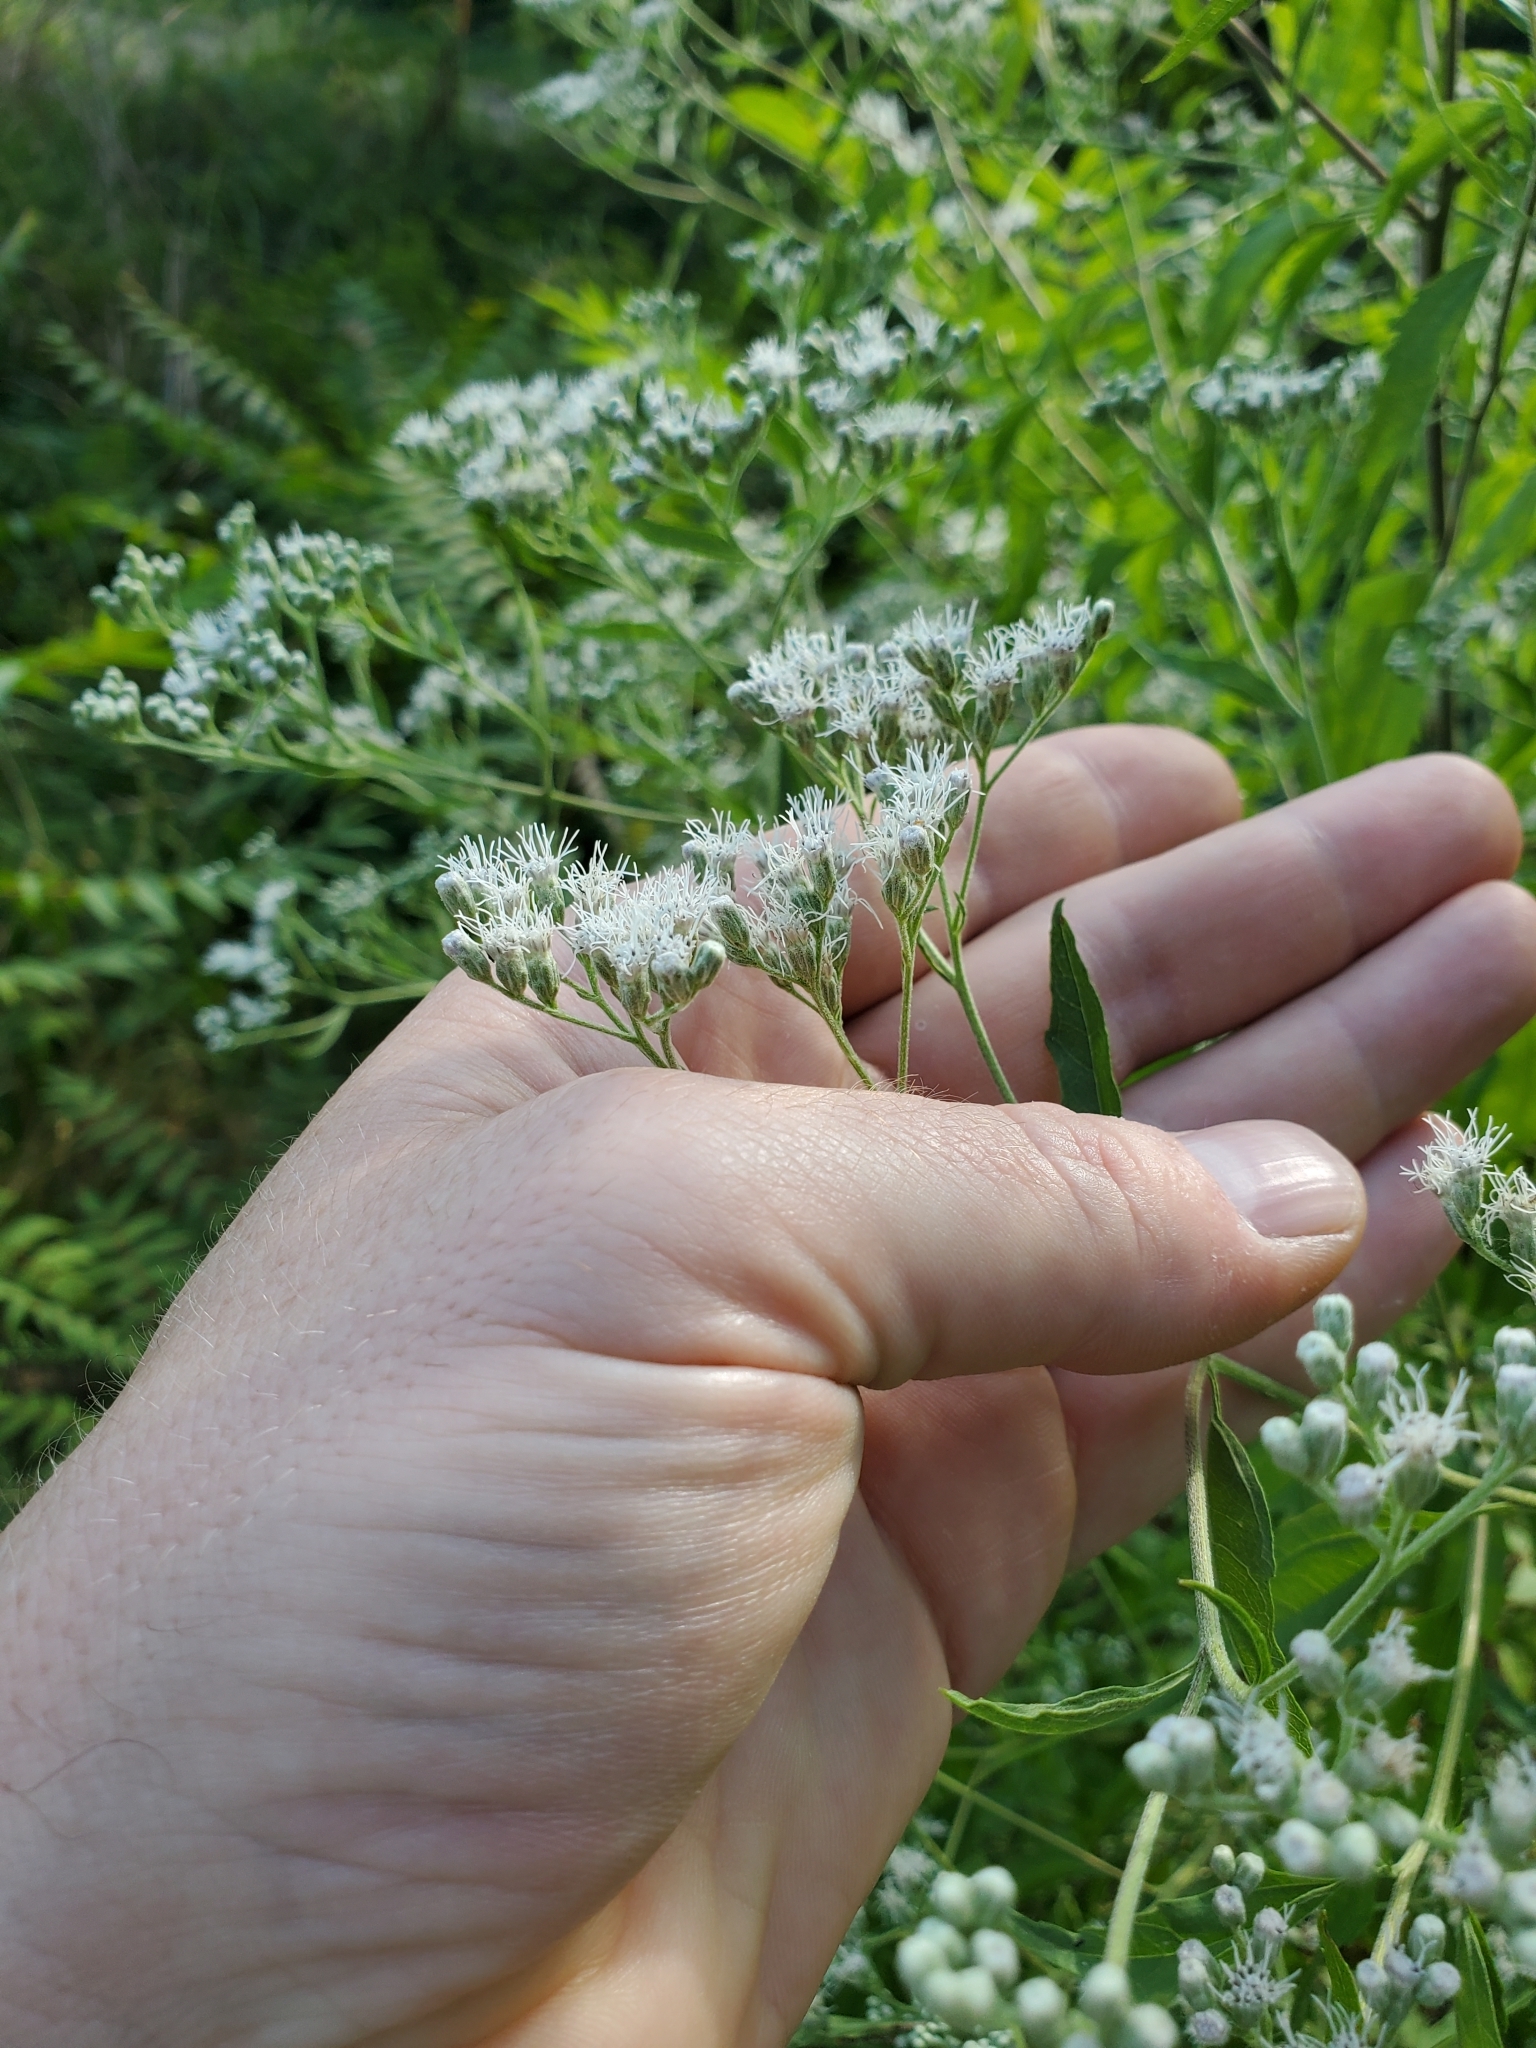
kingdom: Plantae
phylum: Tracheophyta
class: Magnoliopsida
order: Asterales
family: Asteraceae
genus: Eupatorium
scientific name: Eupatorium serotinum
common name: Late boneset
